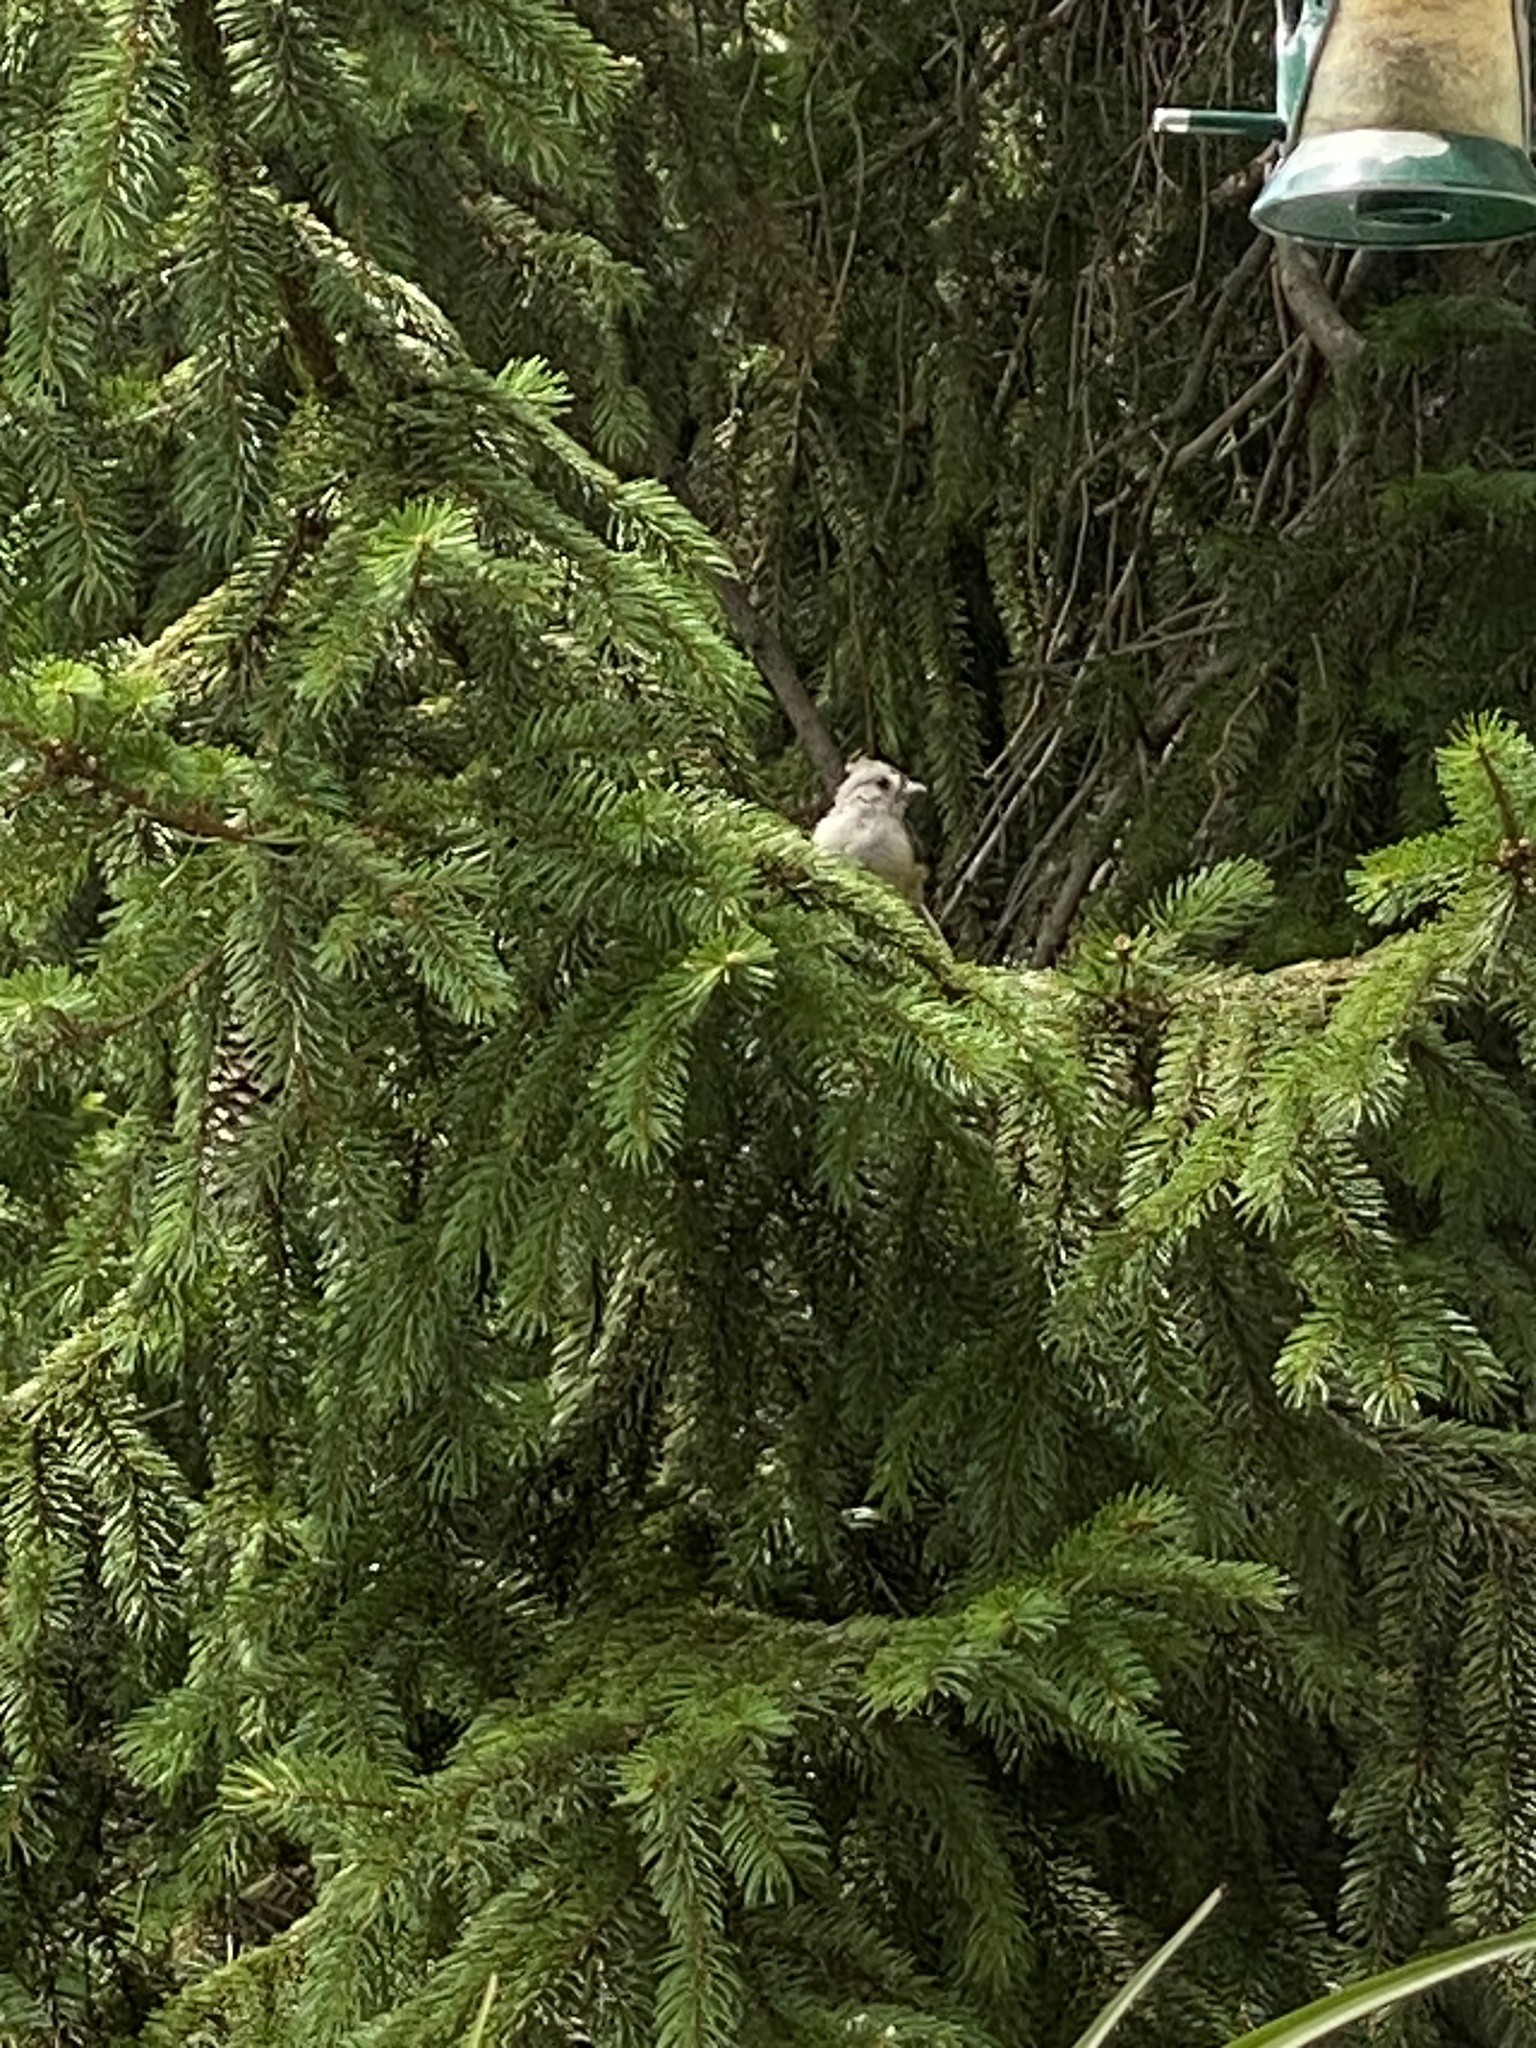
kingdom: Animalia
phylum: Chordata
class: Aves
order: Passeriformes
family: Paridae
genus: Baeolophus
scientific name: Baeolophus bicolor
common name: Tufted titmouse
